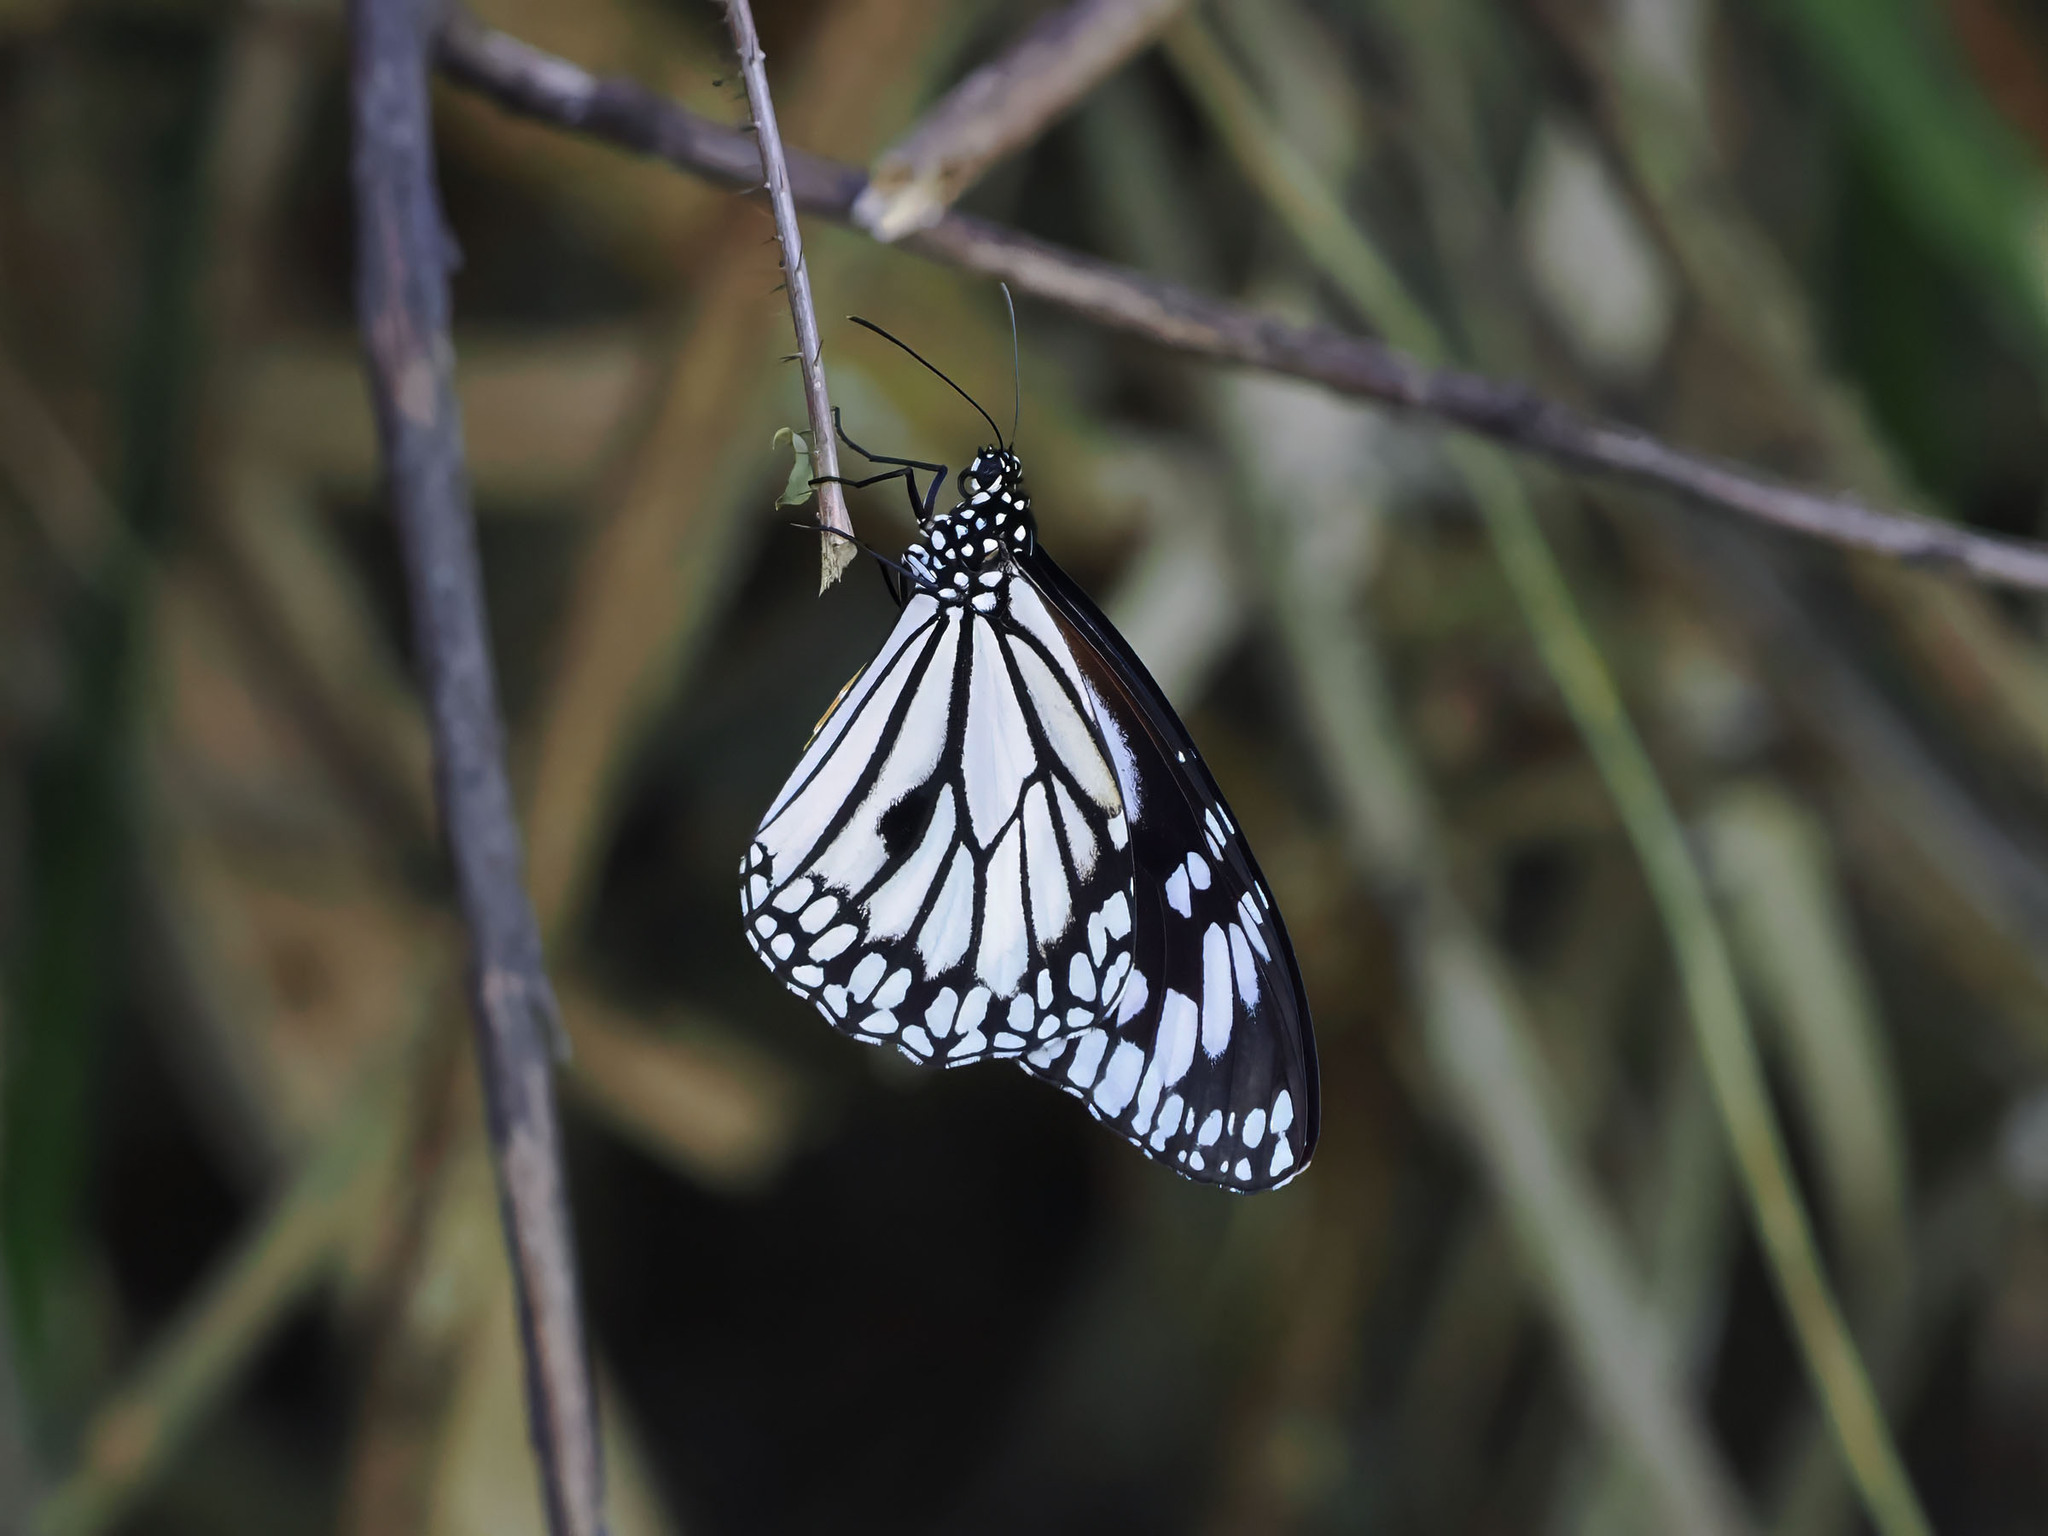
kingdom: Animalia
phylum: Arthropoda
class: Insecta
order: Lepidoptera
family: Nymphalidae
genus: Danaus
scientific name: Danaus melanippus
